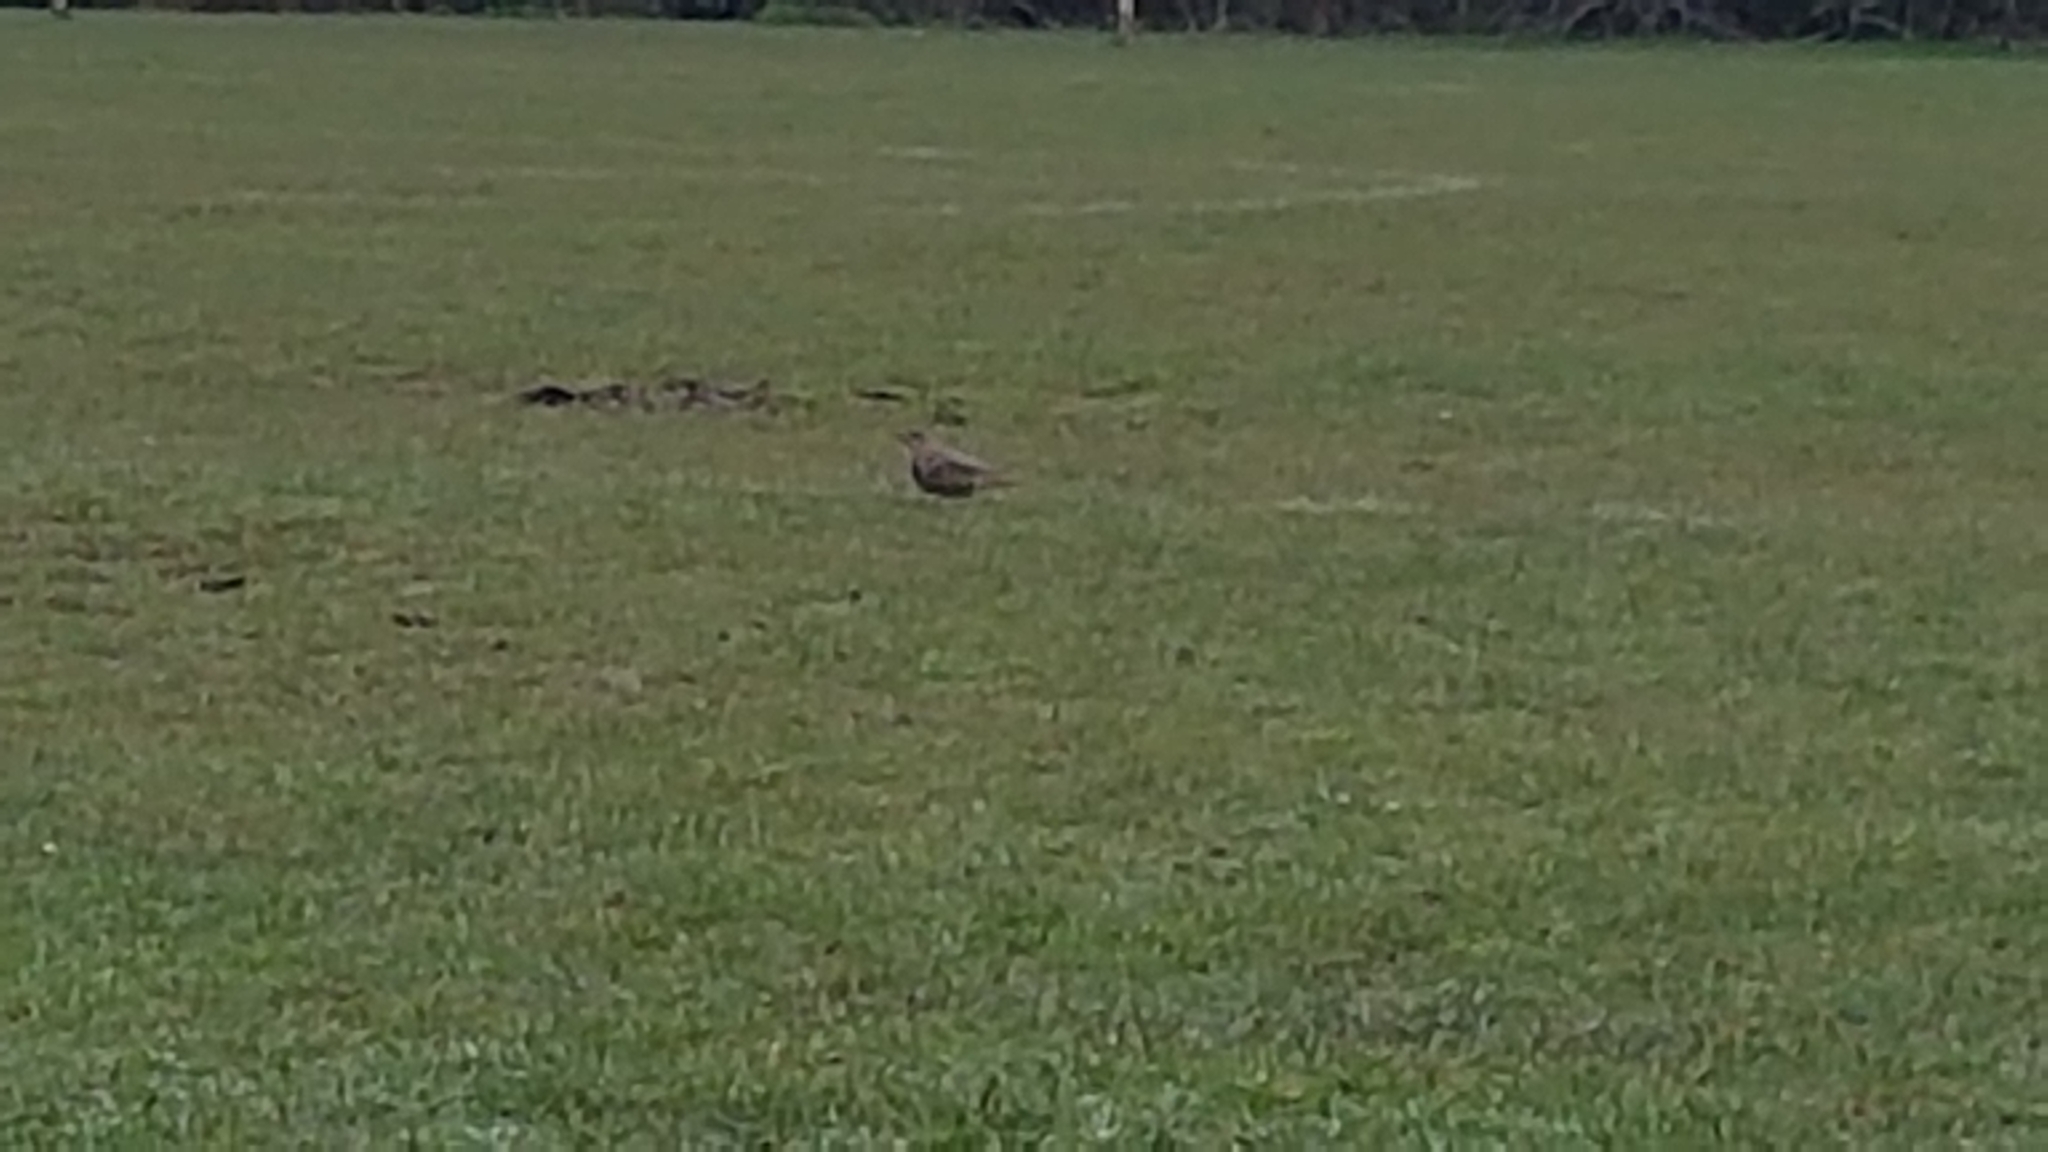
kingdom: Animalia
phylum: Chordata
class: Aves
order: Passeriformes
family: Turdidae
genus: Turdus
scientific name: Turdus viscivorus
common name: Mistle thrush
